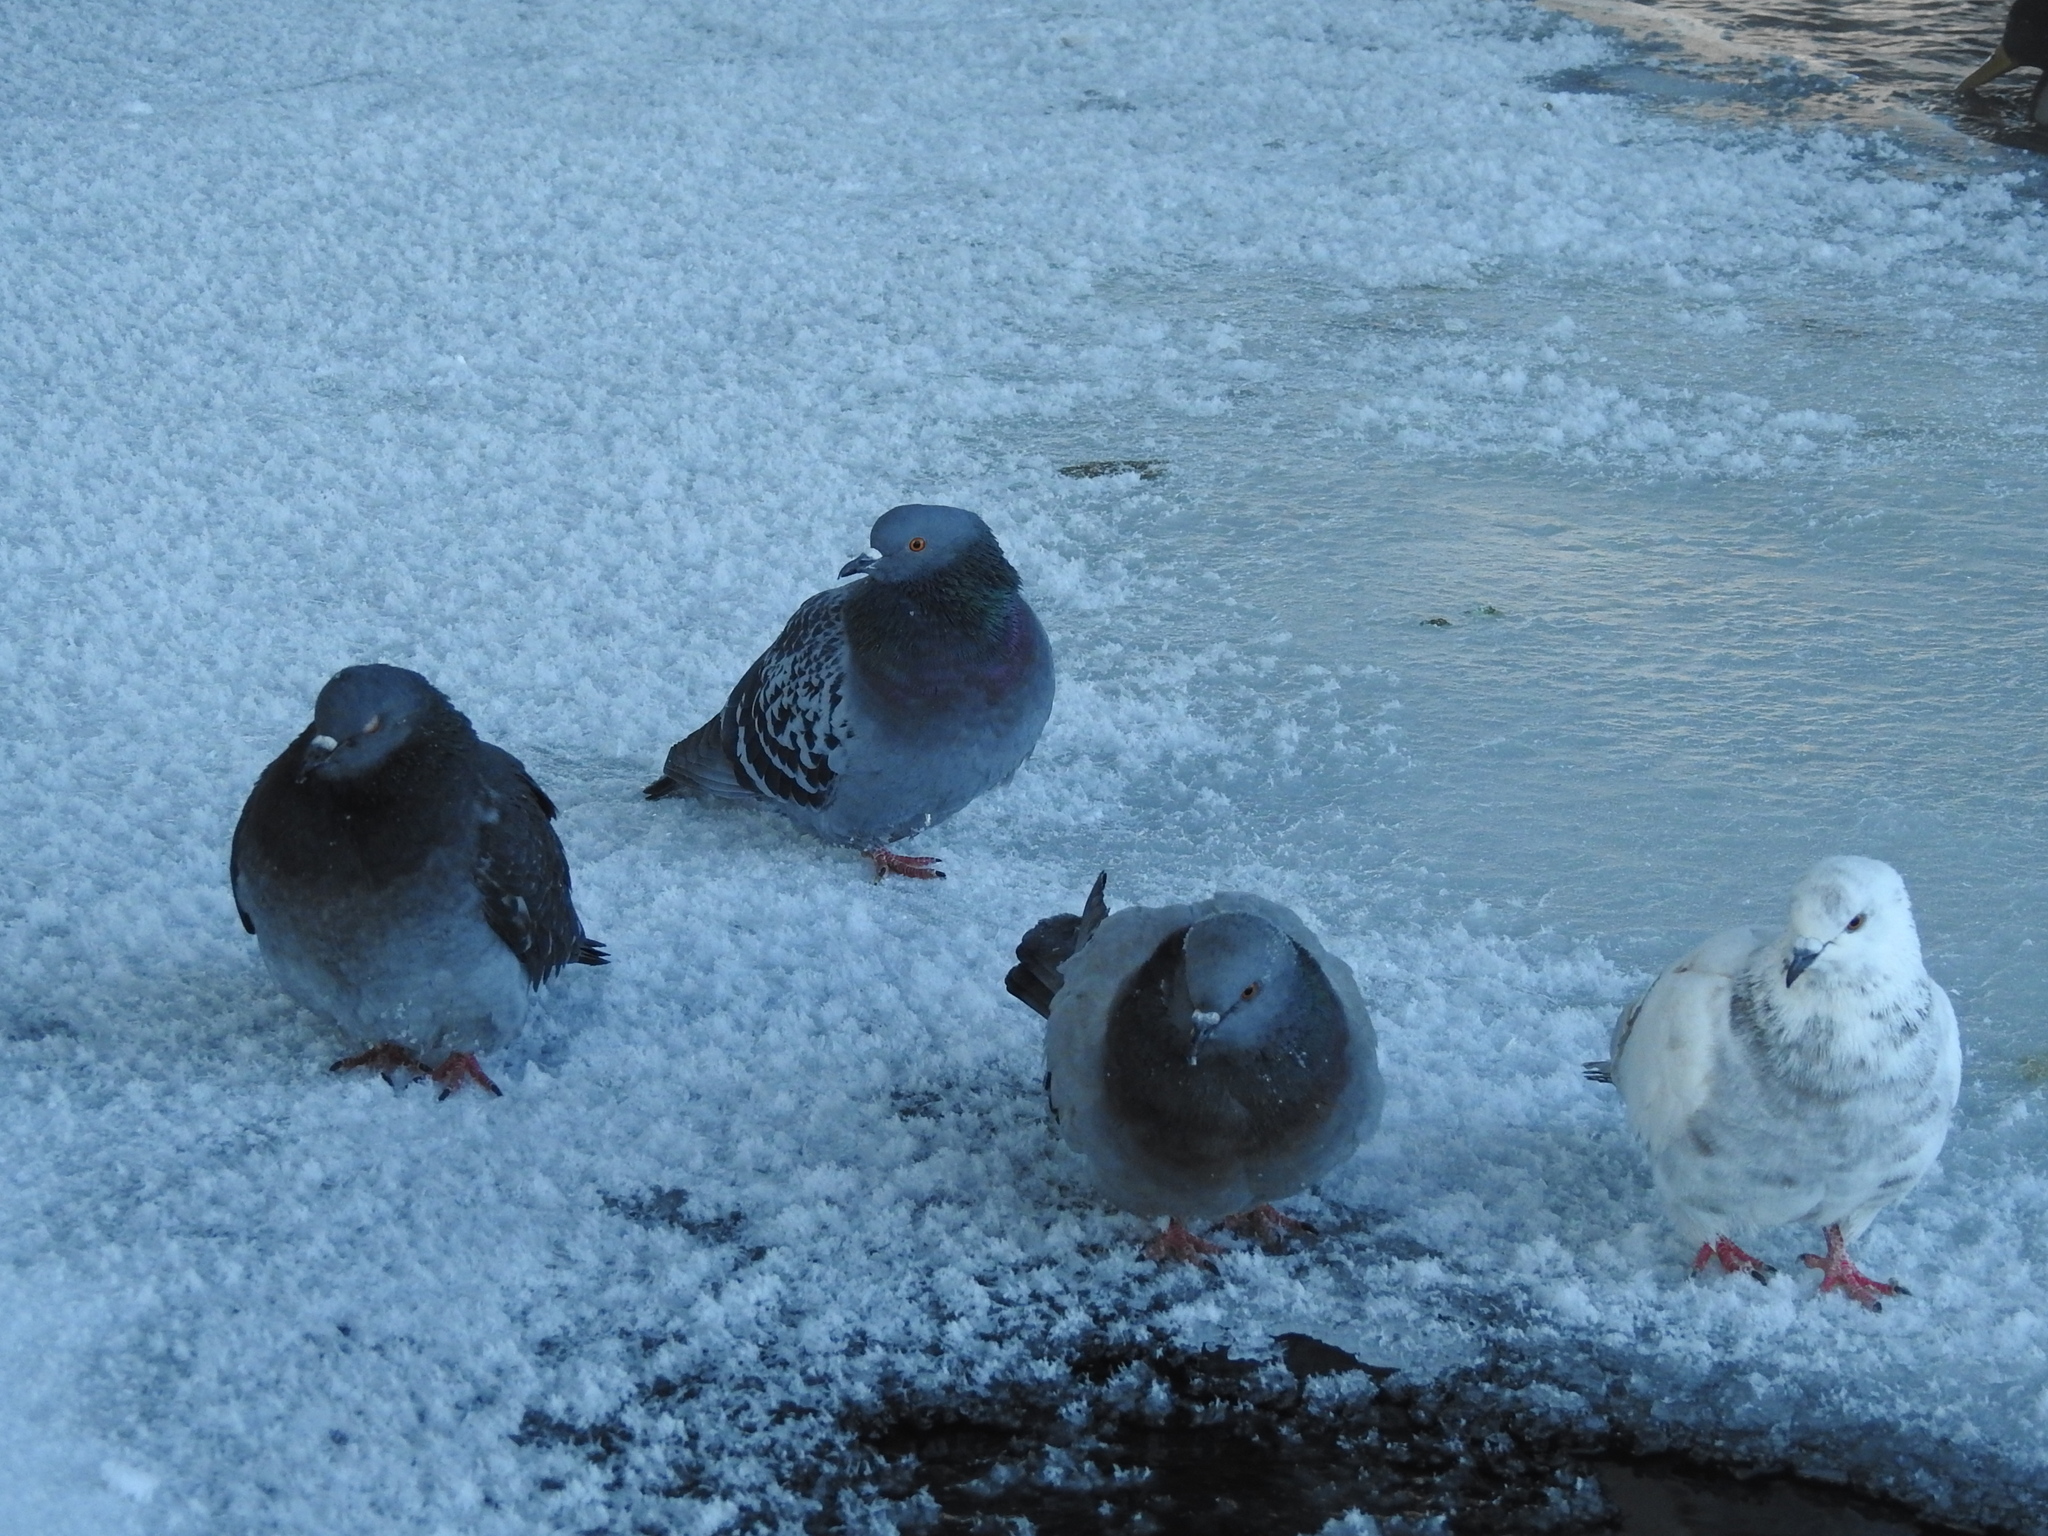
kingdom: Animalia
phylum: Chordata
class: Aves
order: Columbiformes
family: Columbidae
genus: Columba
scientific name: Columba livia
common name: Rock pigeon
